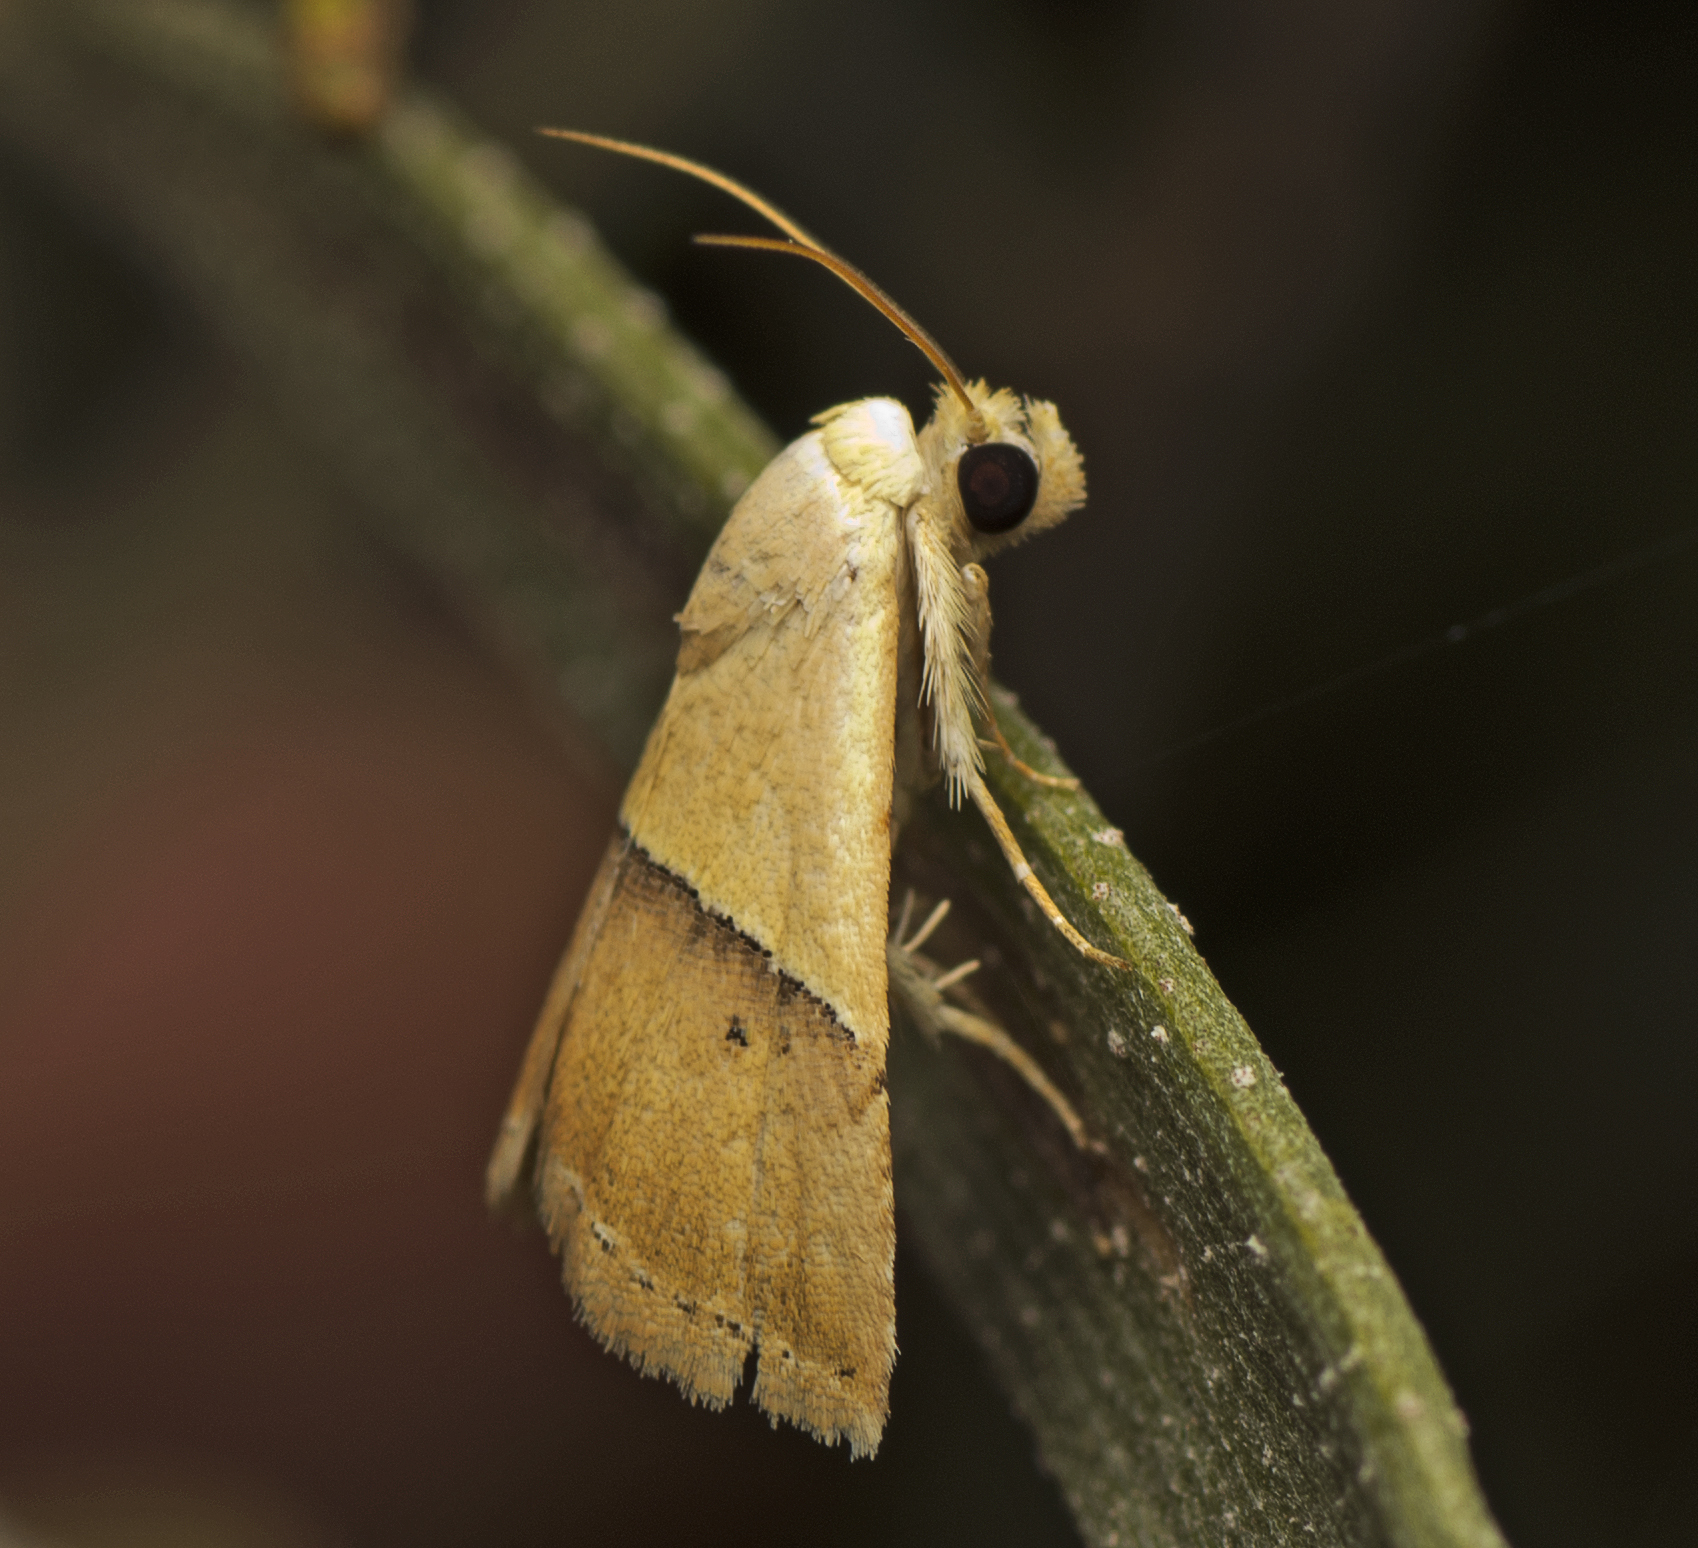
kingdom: Animalia
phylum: Arthropoda
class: Insecta
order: Lepidoptera
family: Noctuidae
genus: Eublemma
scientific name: Eublemma accedens
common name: Moth
